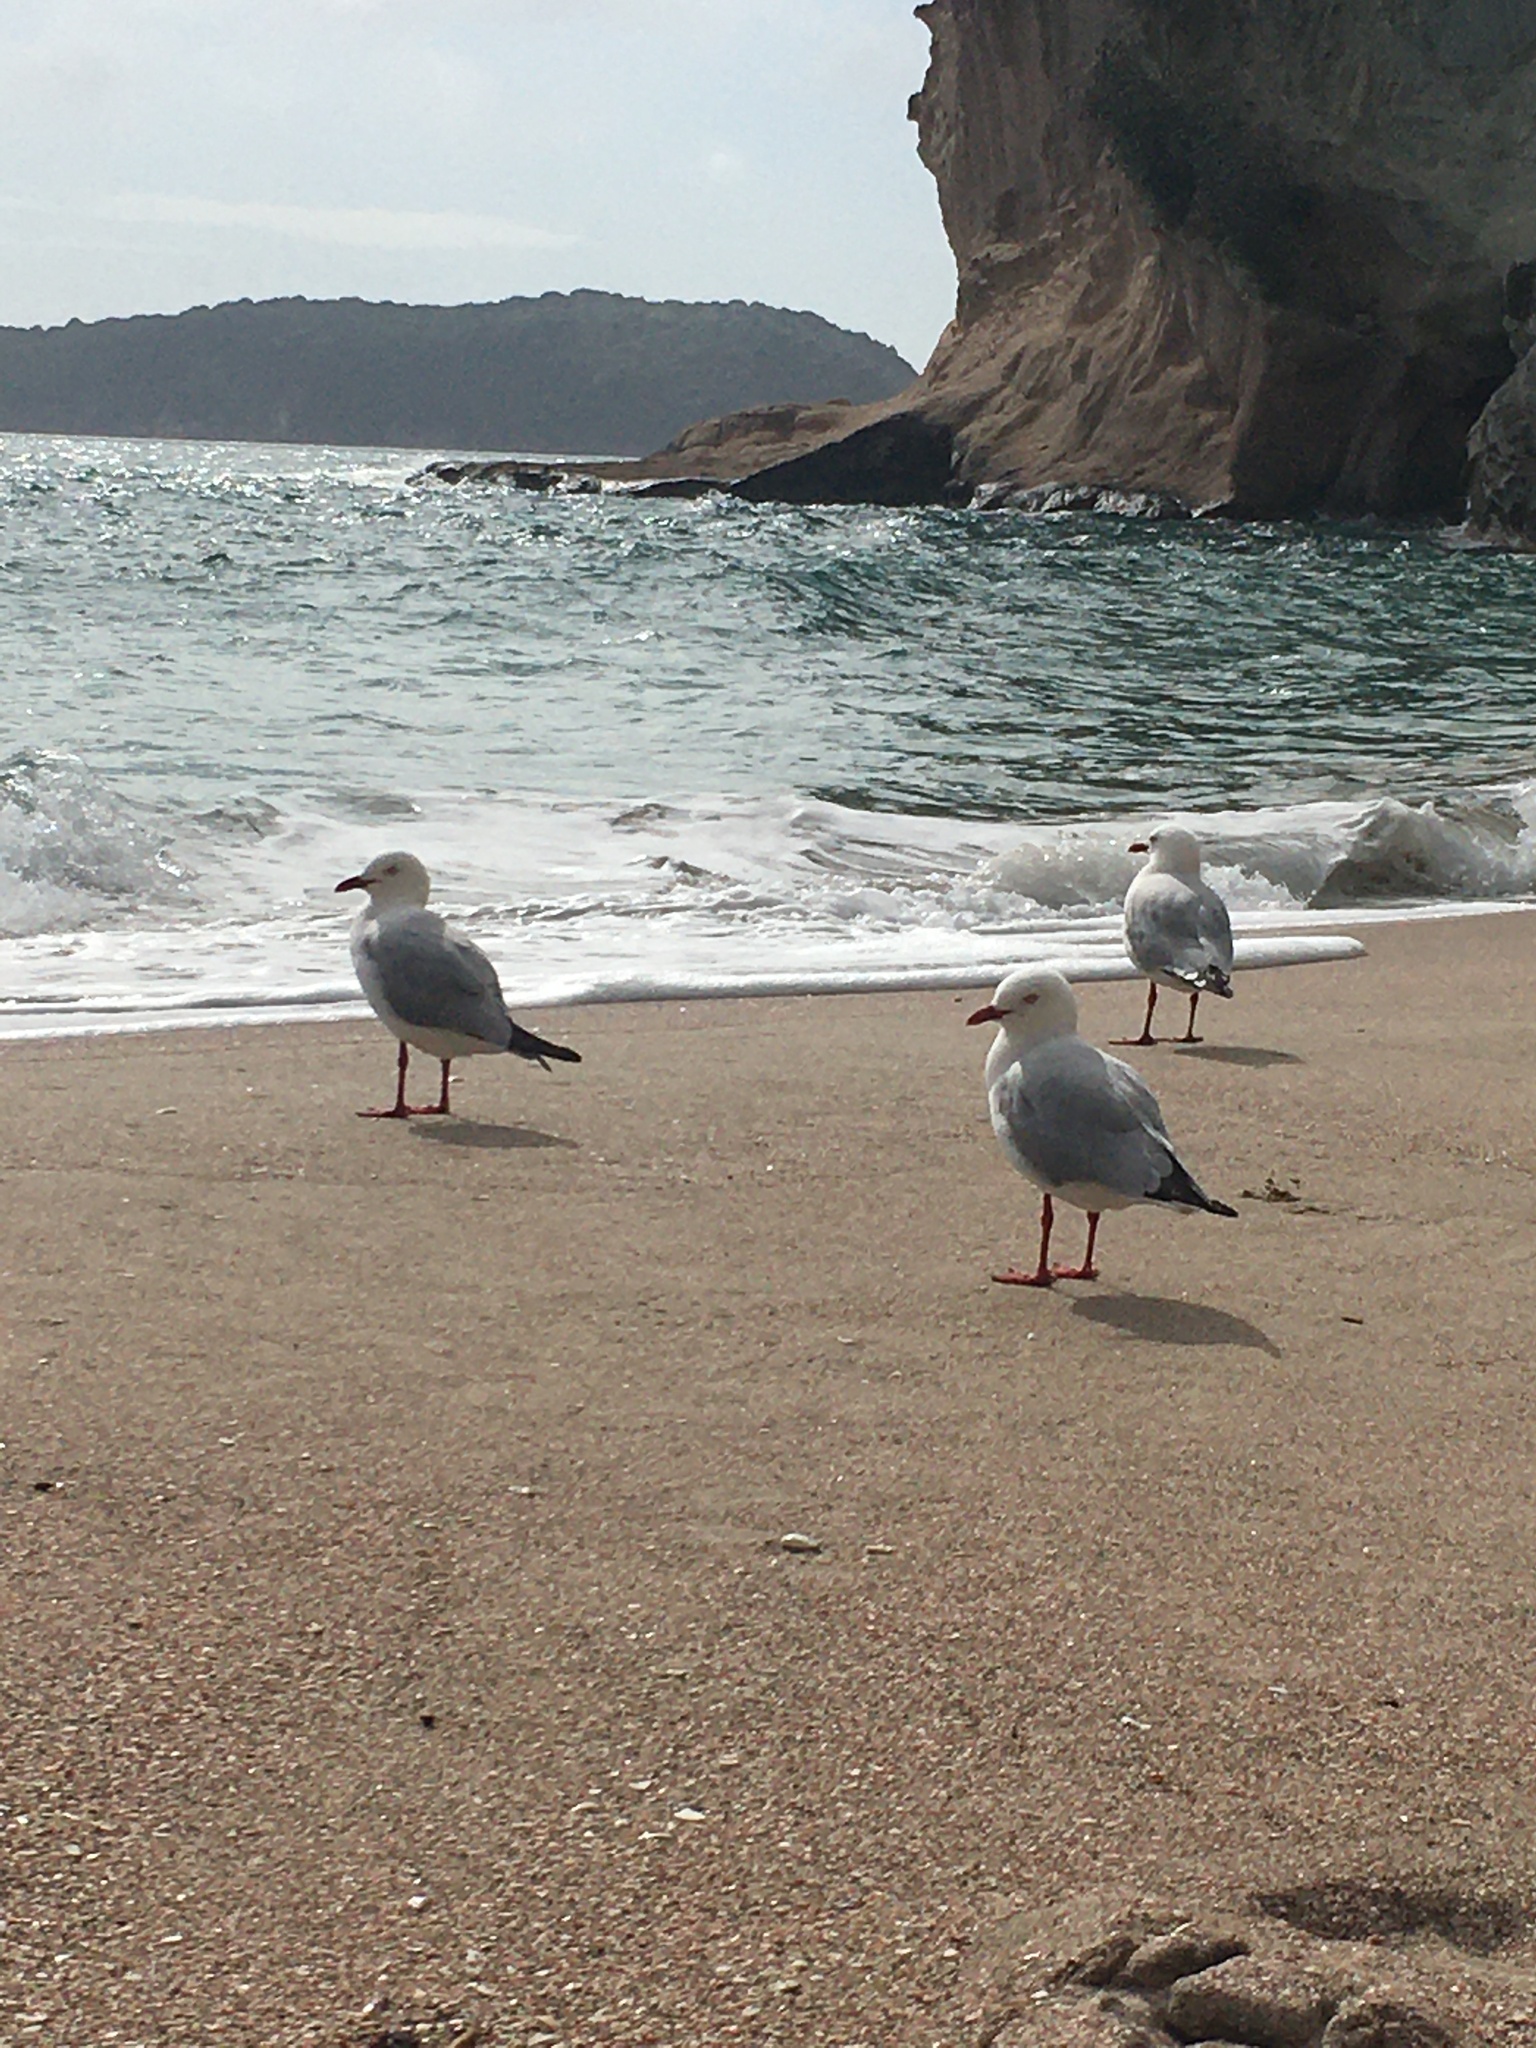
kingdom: Animalia
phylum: Chordata
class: Aves
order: Charadriiformes
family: Laridae
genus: Chroicocephalus
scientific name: Chroicocephalus novaehollandiae
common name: Silver gull
